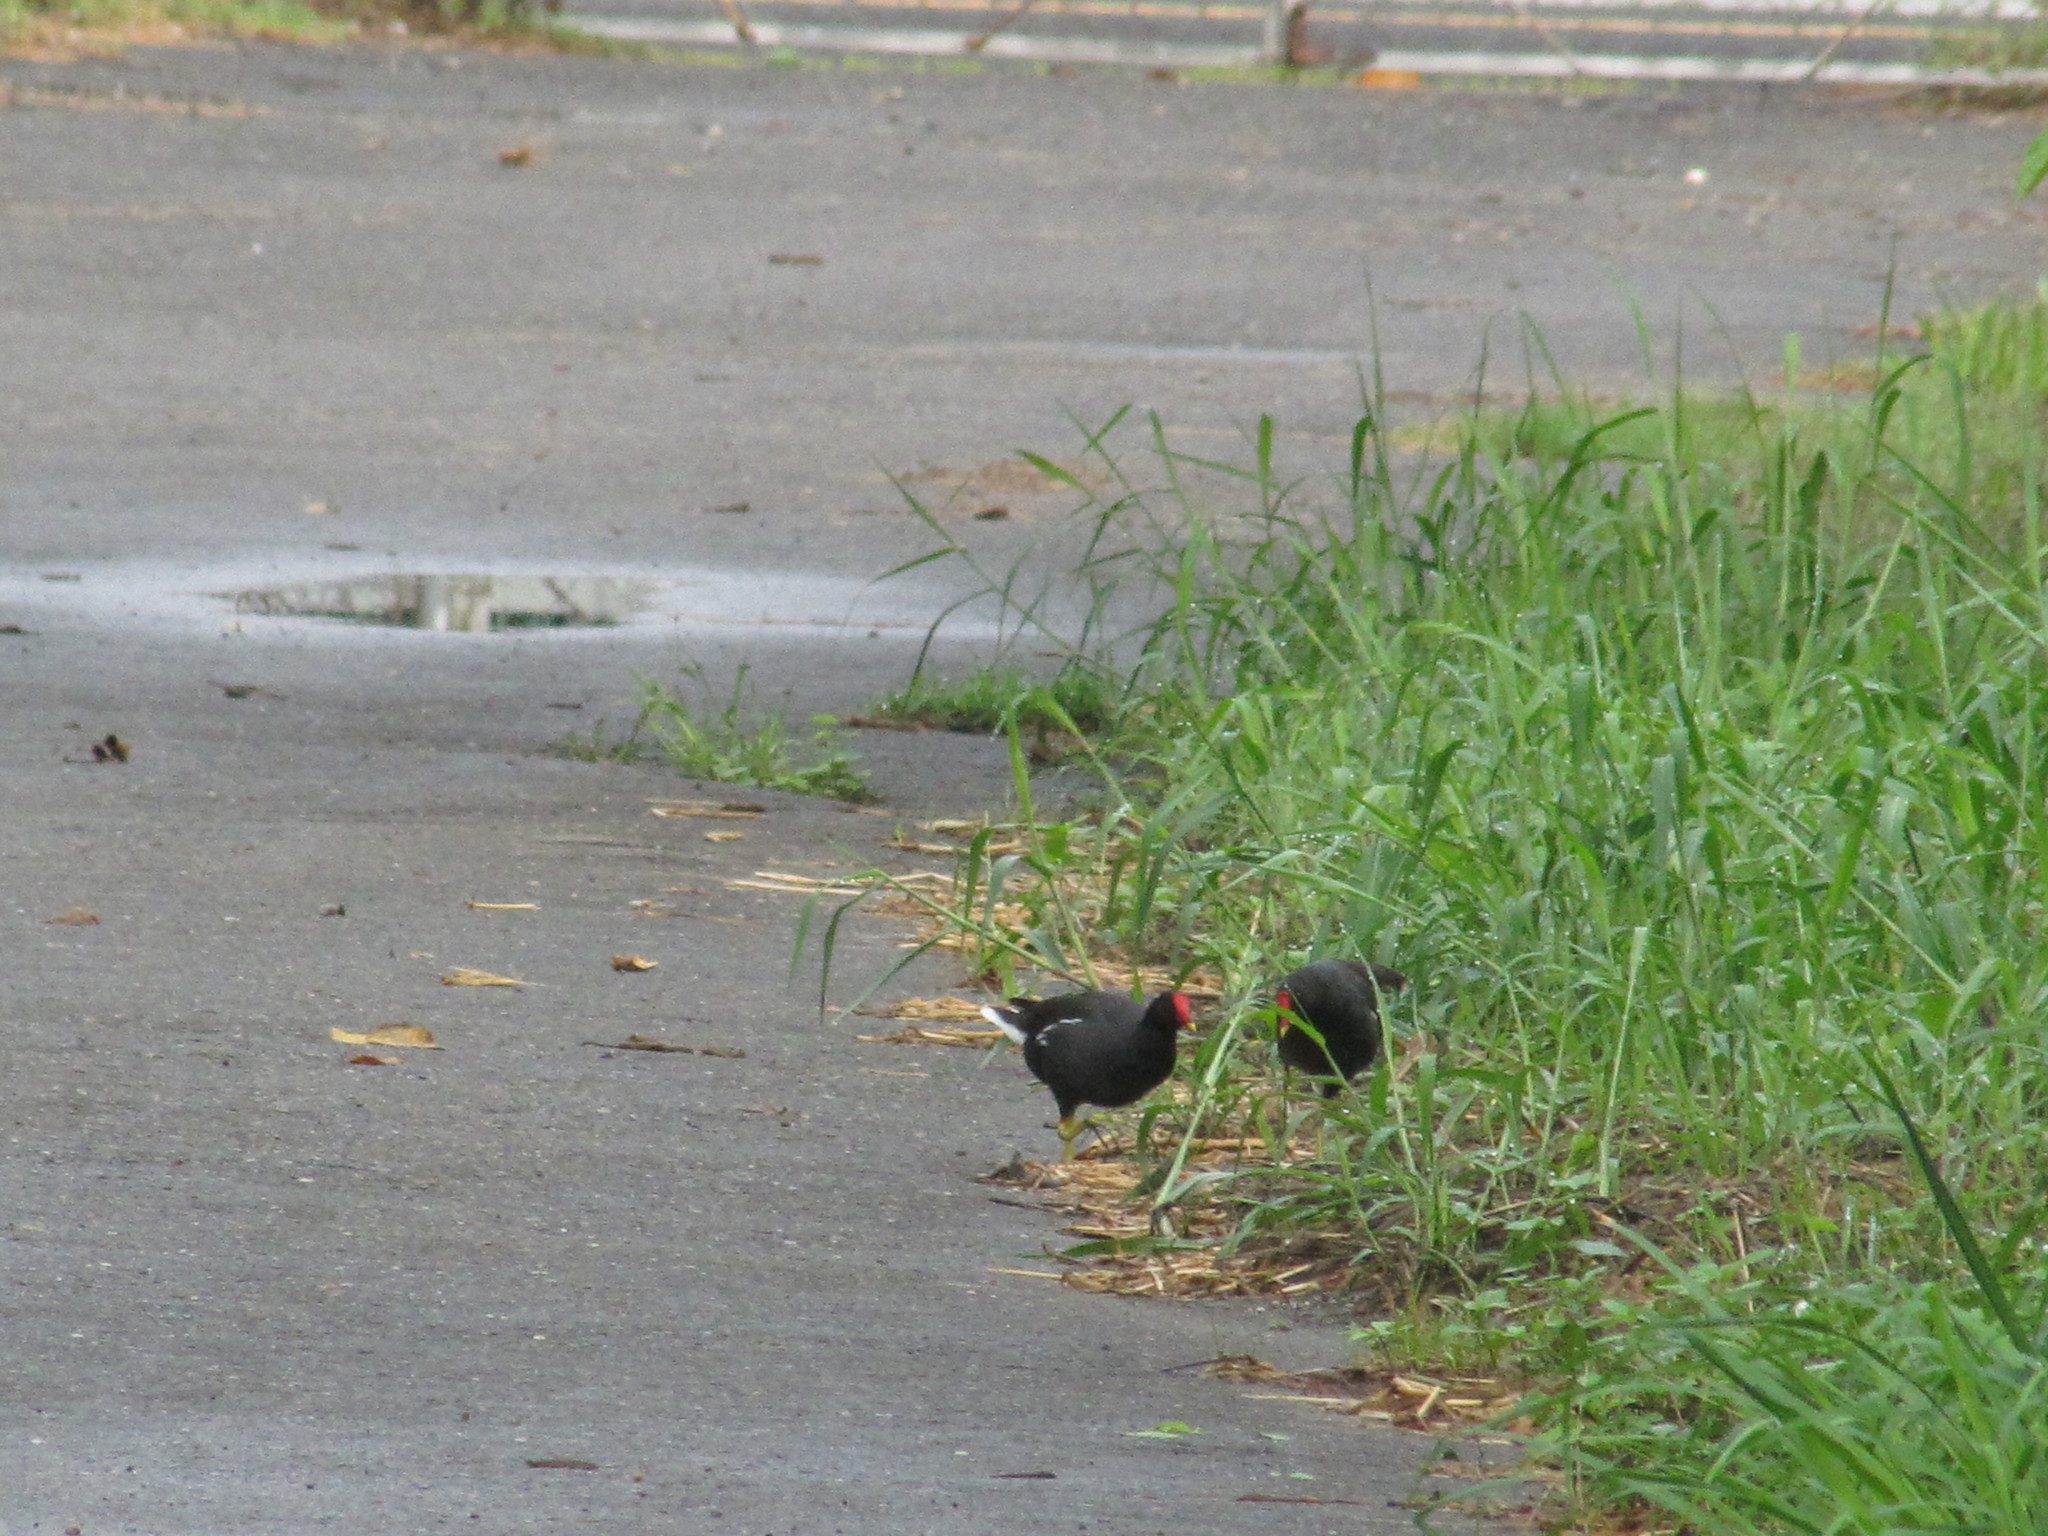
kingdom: Animalia
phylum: Chordata
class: Aves
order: Gruiformes
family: Rallidae
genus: Gallinula
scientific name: Gallinula chloropus
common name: Common moorhen
